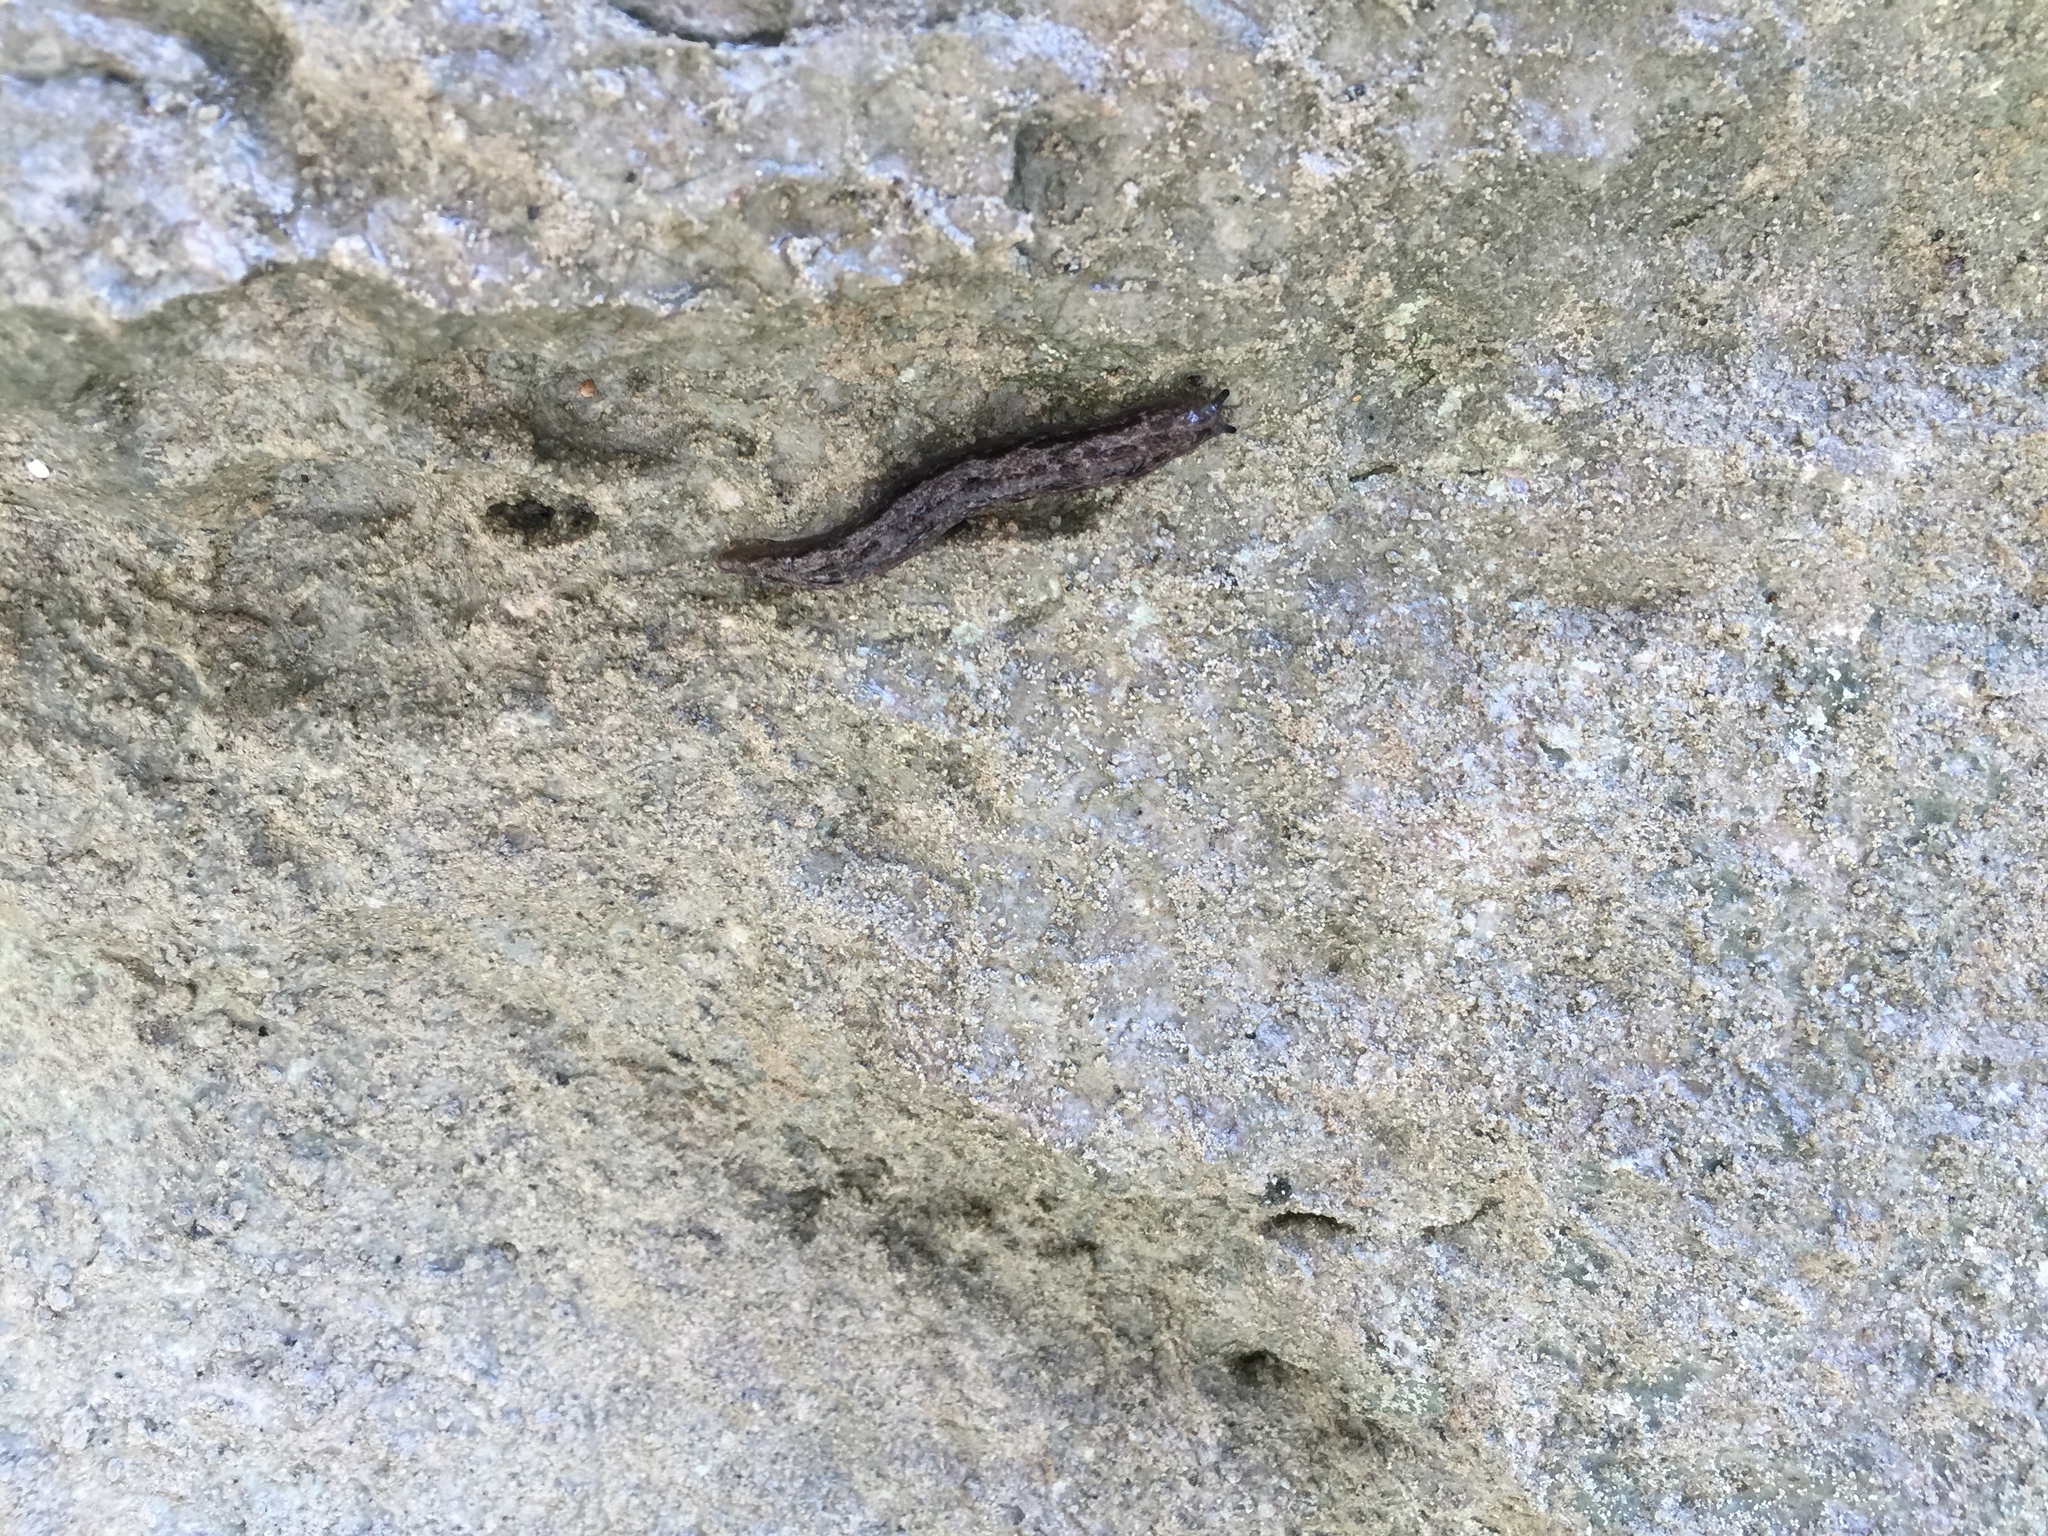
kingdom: Animalia
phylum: Mollusca
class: Gastropoda
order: Stylommatophora
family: Philomycidae
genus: Megapallifera
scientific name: Megapallifera mutabilis
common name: Changeable mantleslug
